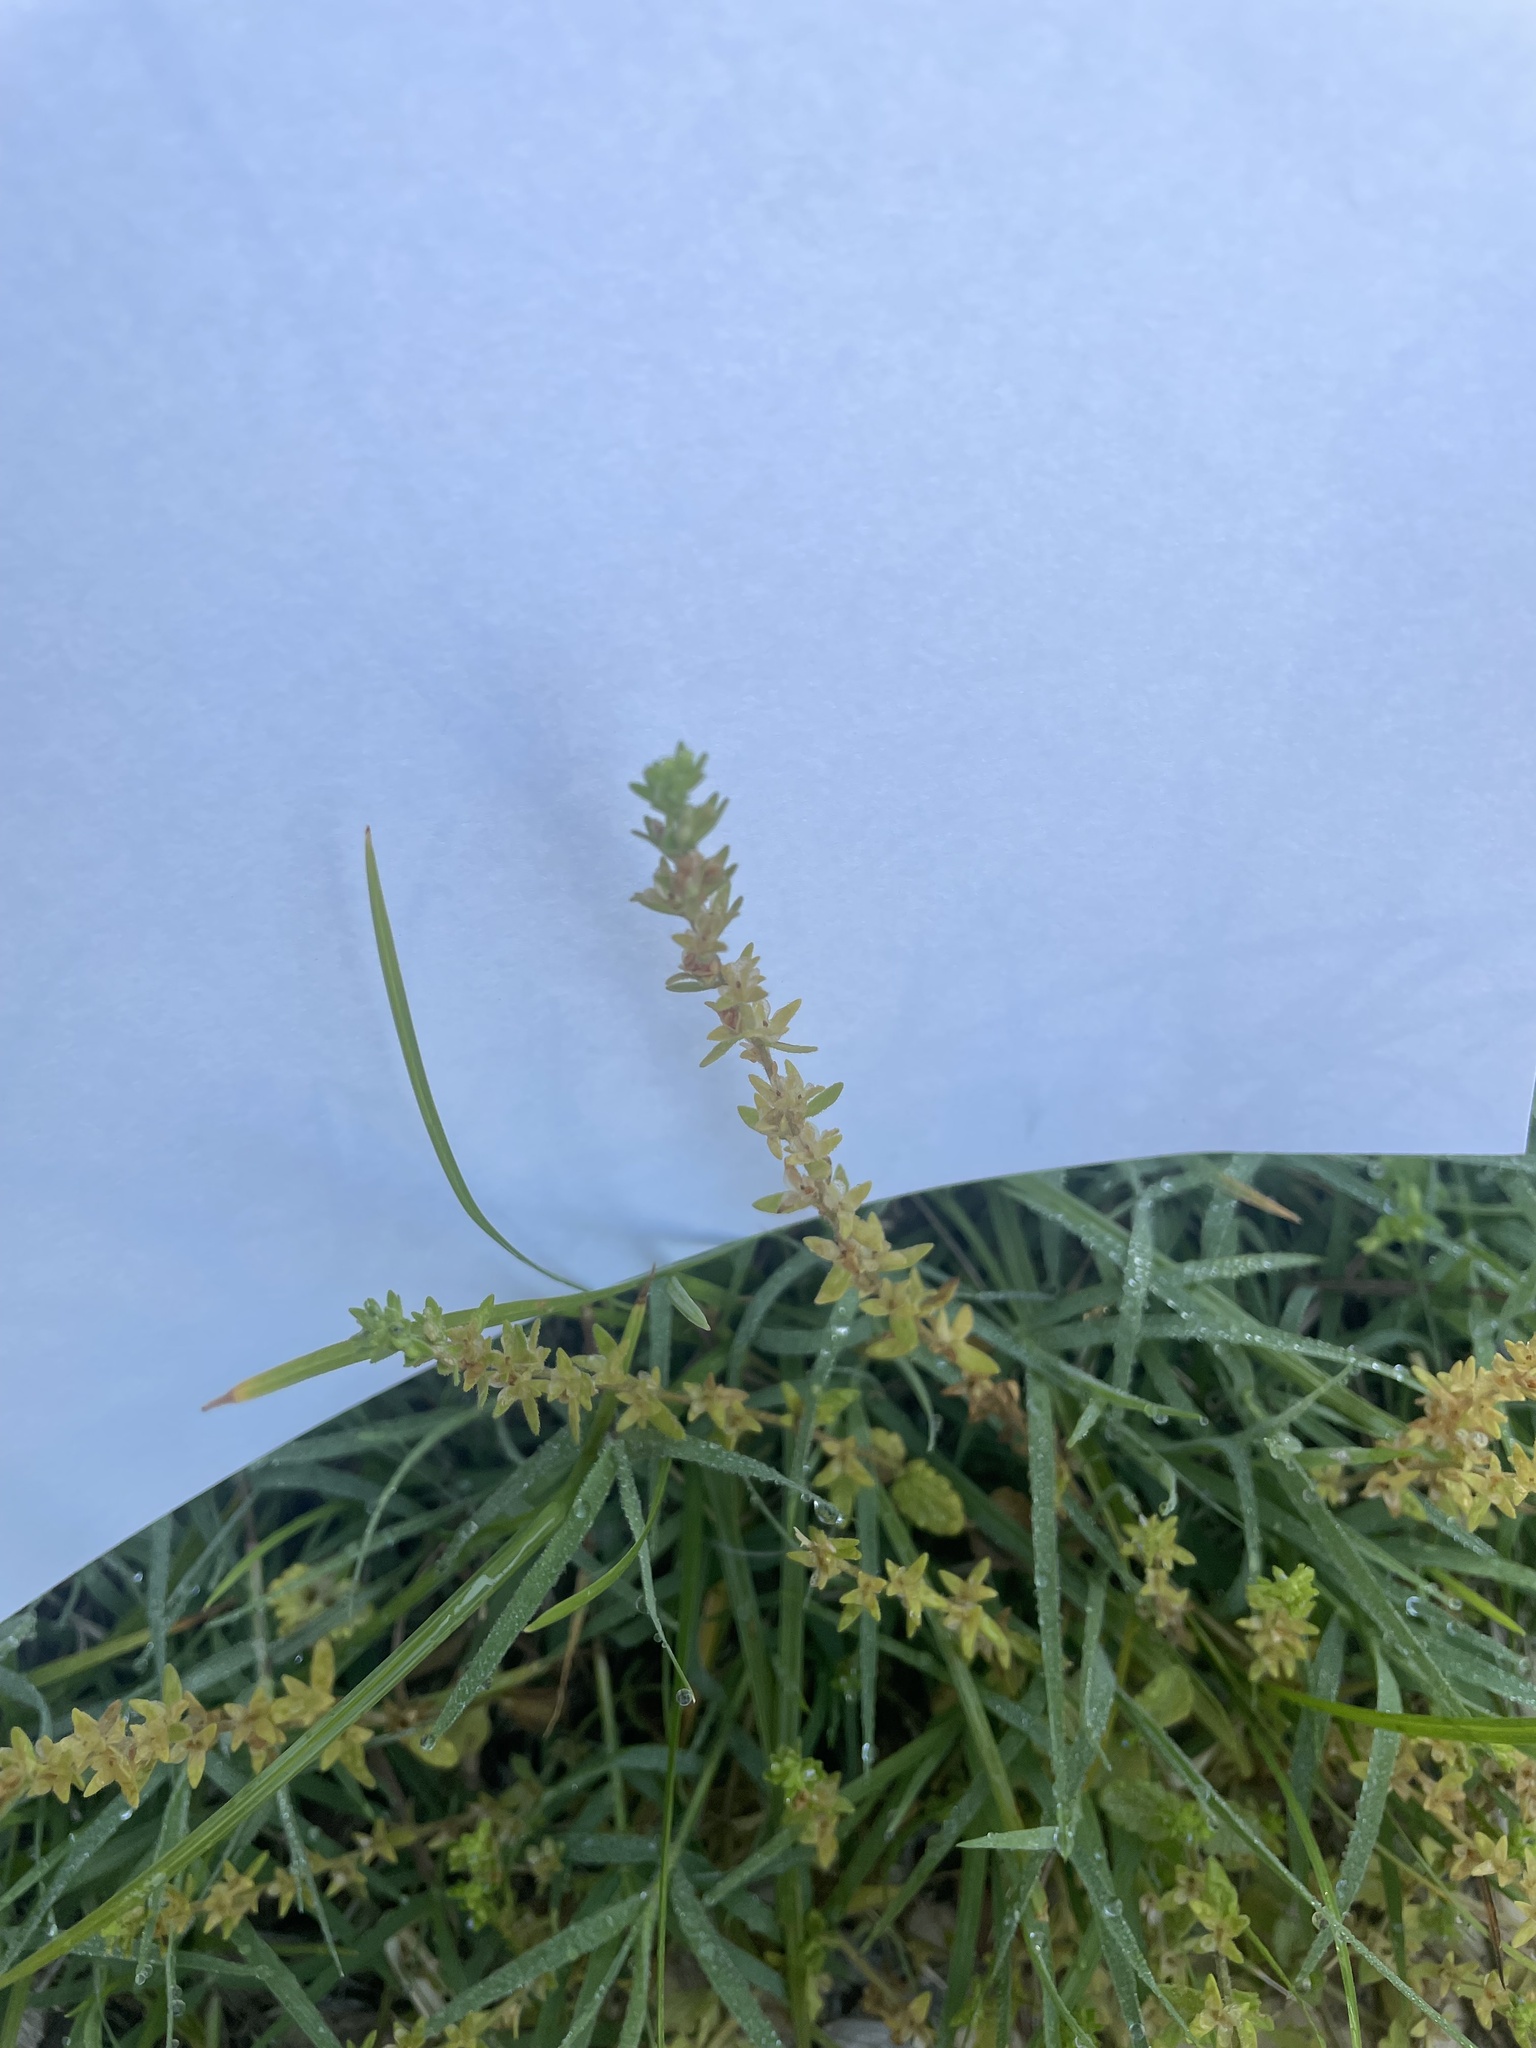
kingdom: Plantae
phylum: Tracheophyta
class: Magnoliopsida
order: Lamiales
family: Plantaginaceae
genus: Veronica
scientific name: Veronica arvensis
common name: Corn speedwell
